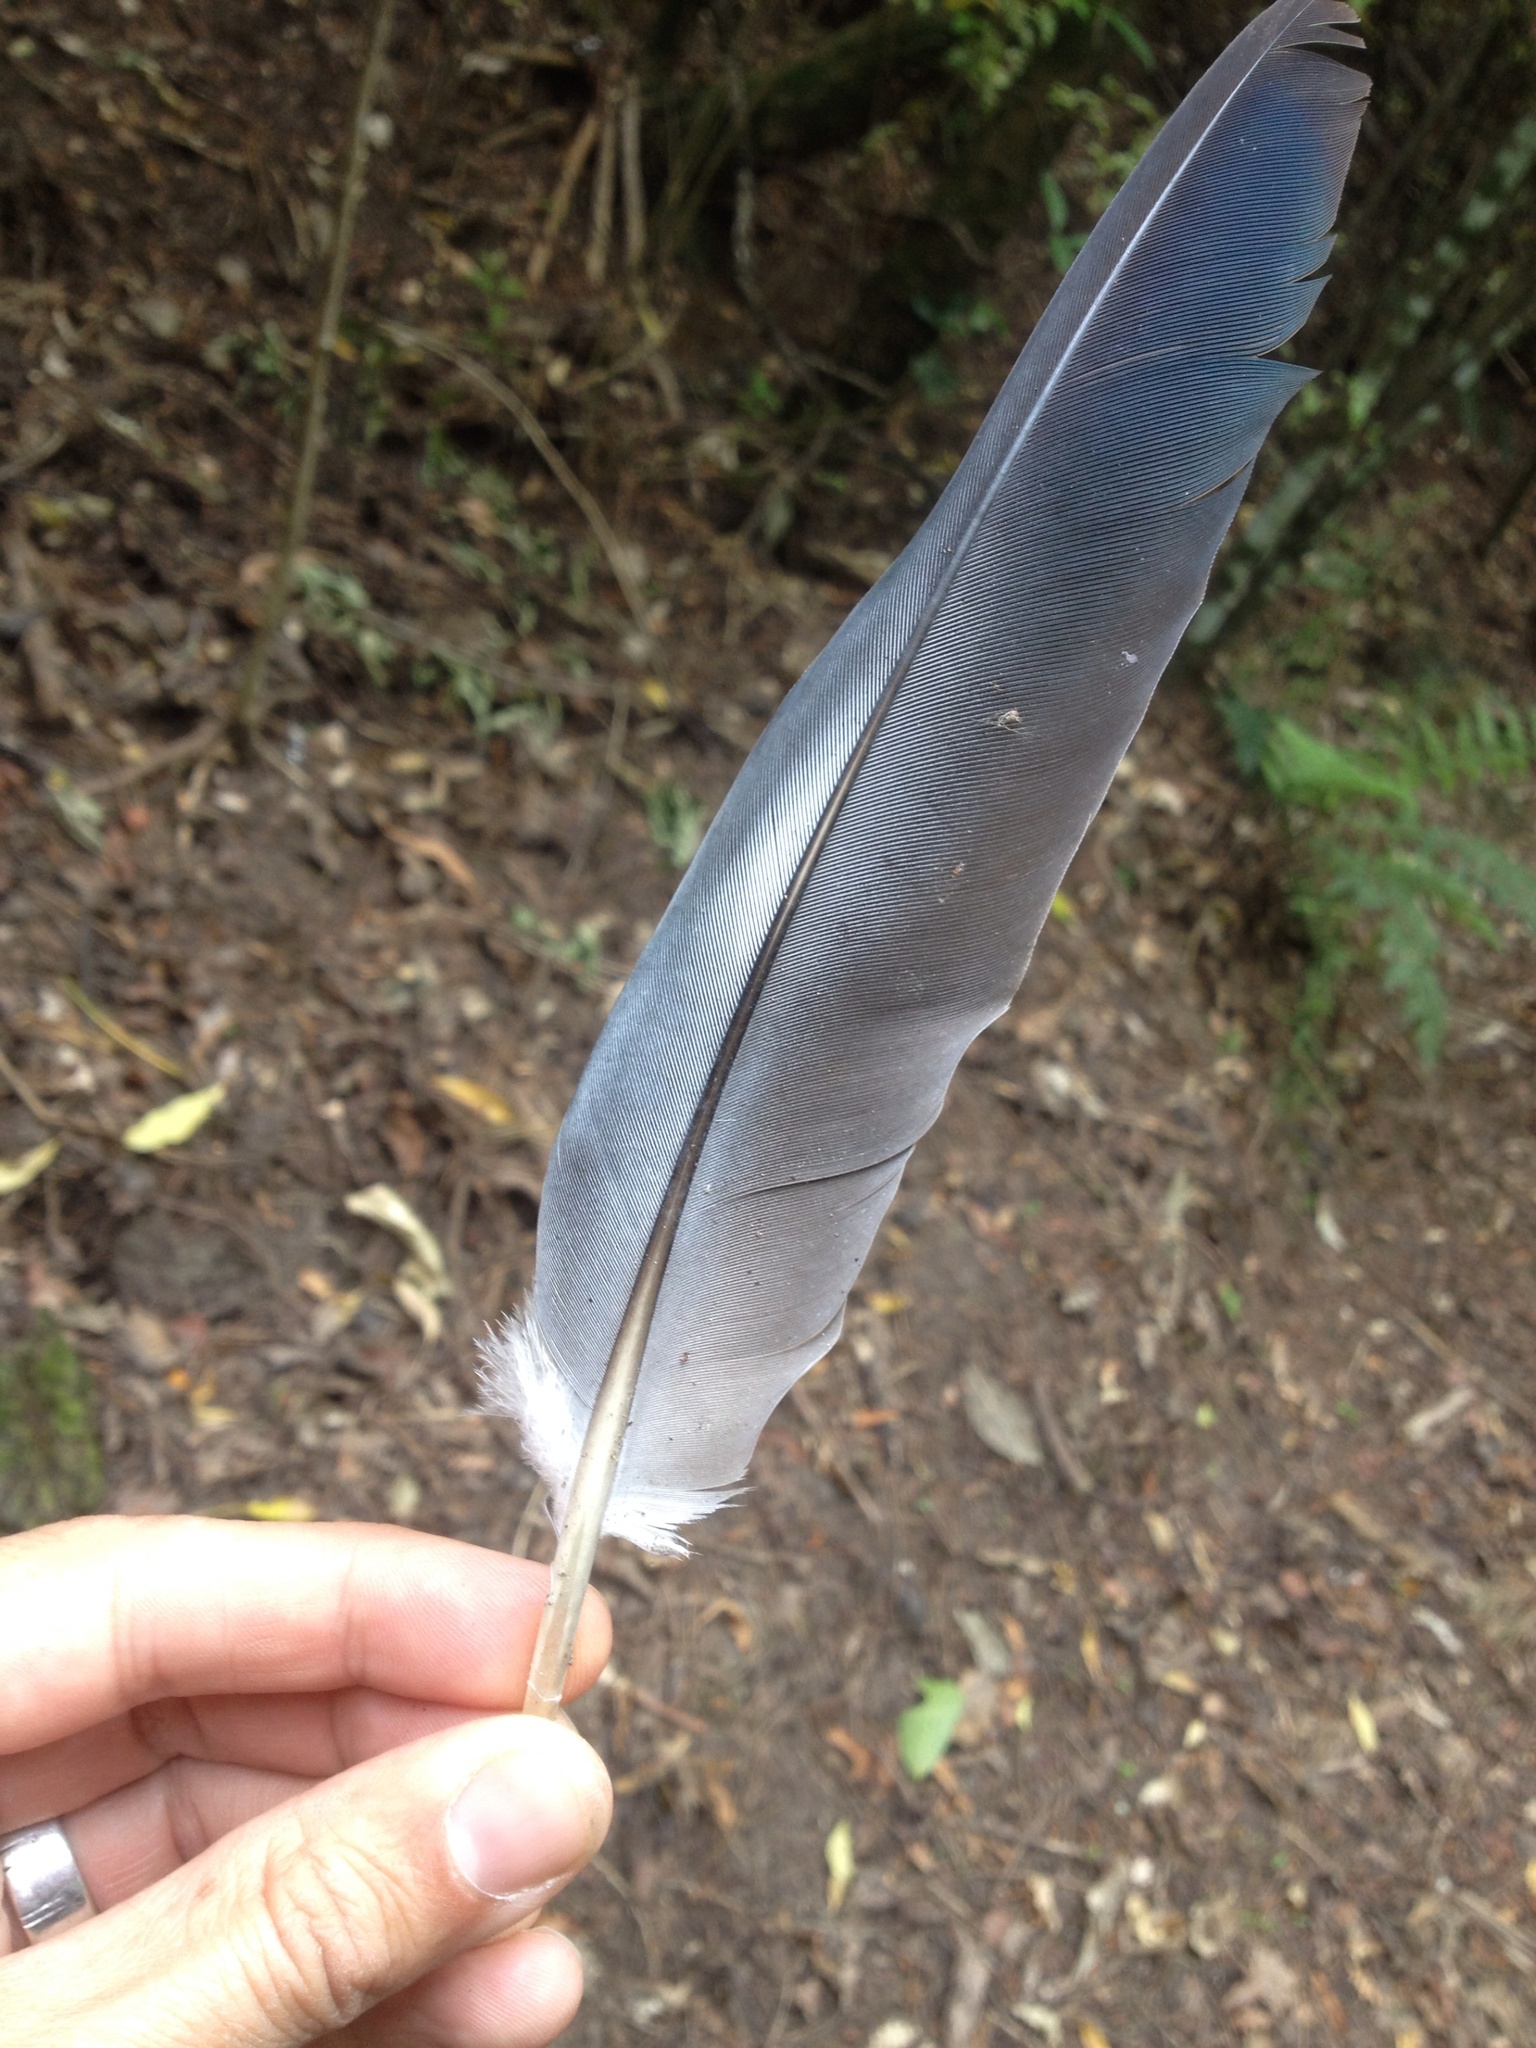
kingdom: Animalia
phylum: Chordata
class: Aves
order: Columbiformes
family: Columbidae
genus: Hemiphaga
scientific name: Hemiphaga novaeseelandiae
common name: New zealand pigeon
